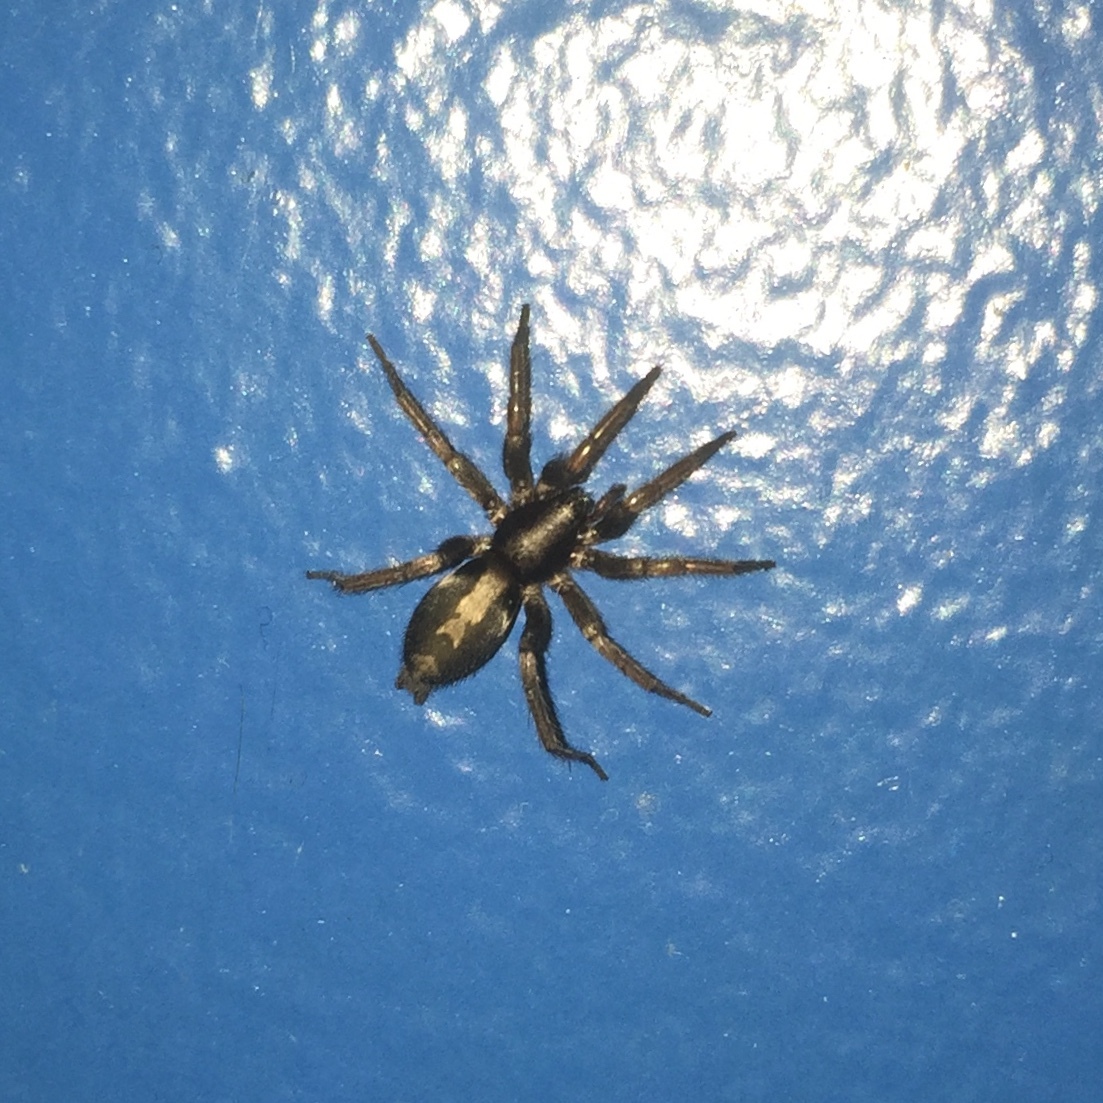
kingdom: Animalia
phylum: Arthropoda
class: Arachnida
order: Araneae
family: Gnaphosidae
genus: Herpyllus
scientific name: Herpyllus ecclesiasticus
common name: Eastern parson spider
